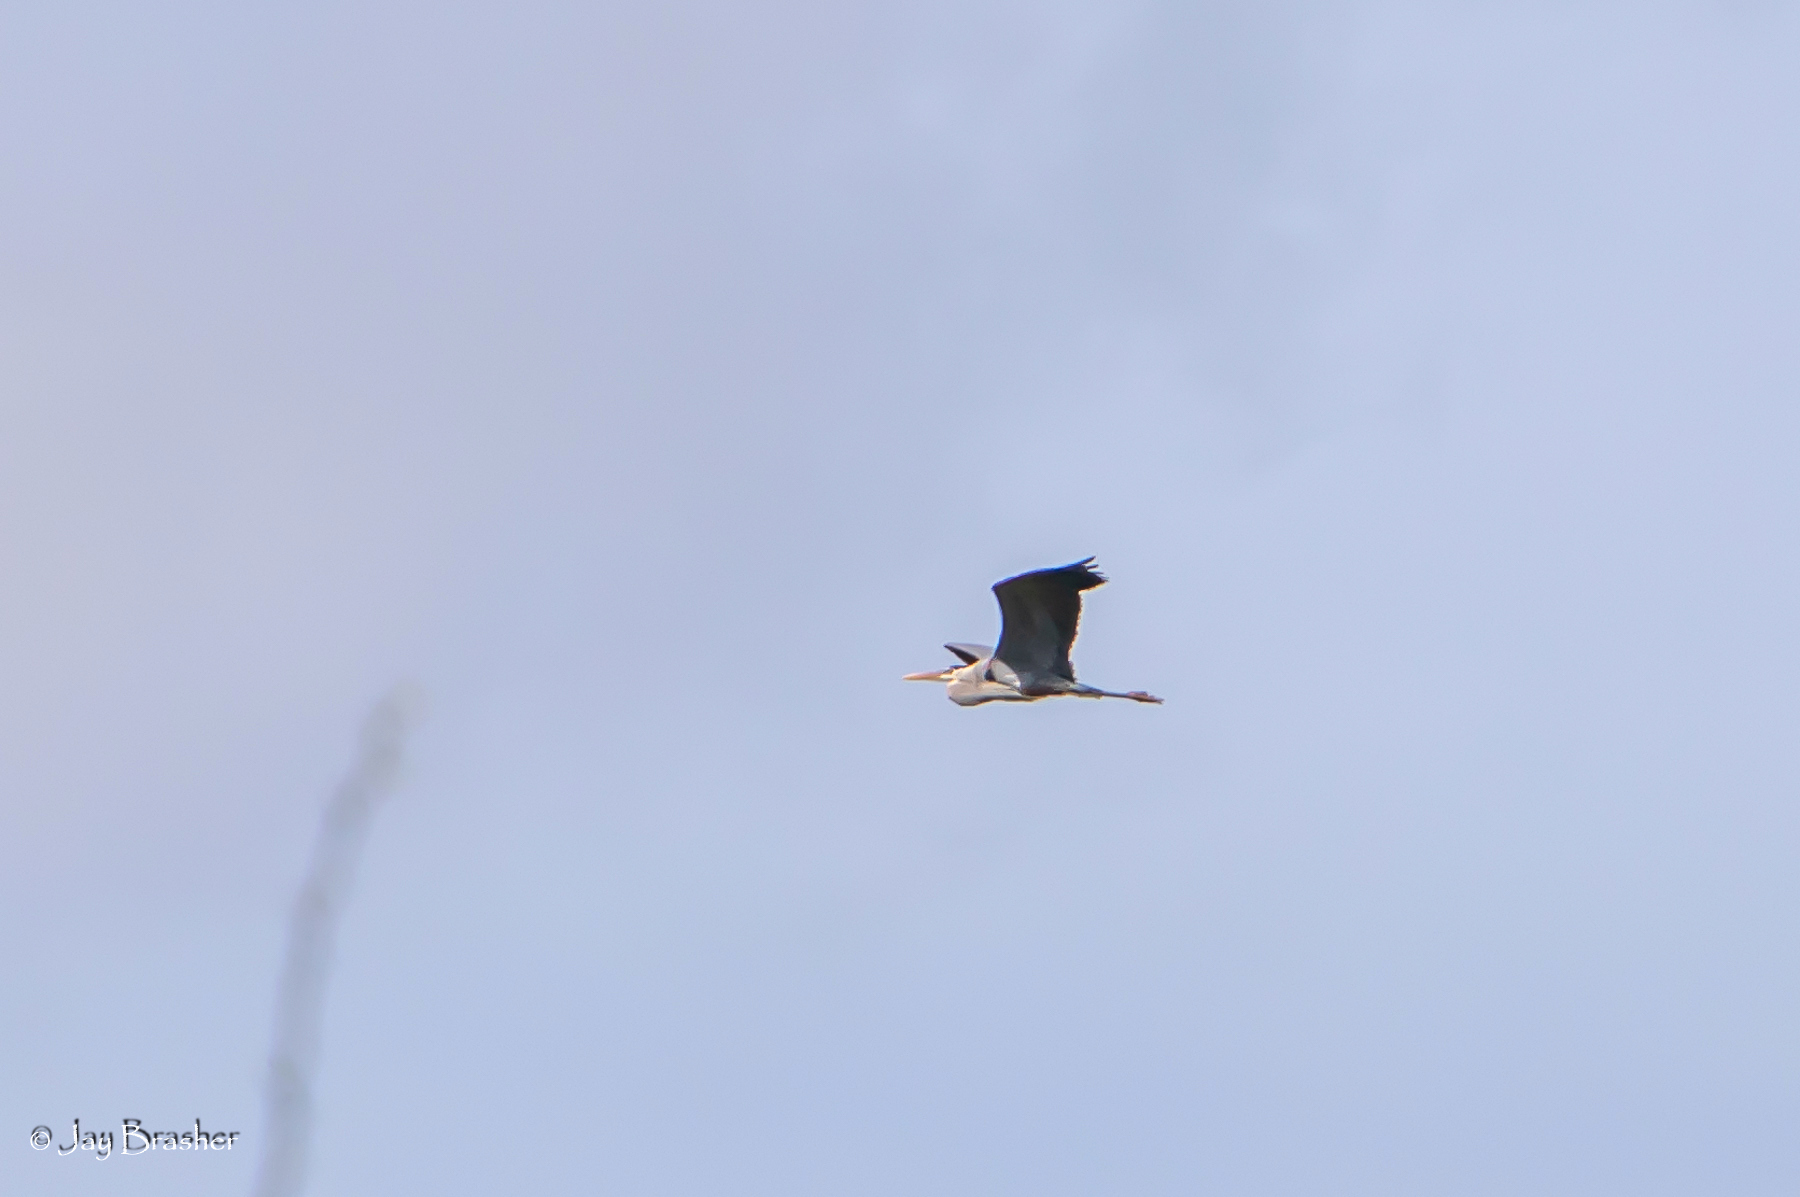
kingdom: Animalia
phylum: Chordata
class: Aves
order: Pelecaniformes
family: Ardeidae
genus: Ardea
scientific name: Ardea herodias
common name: Great blue heron
